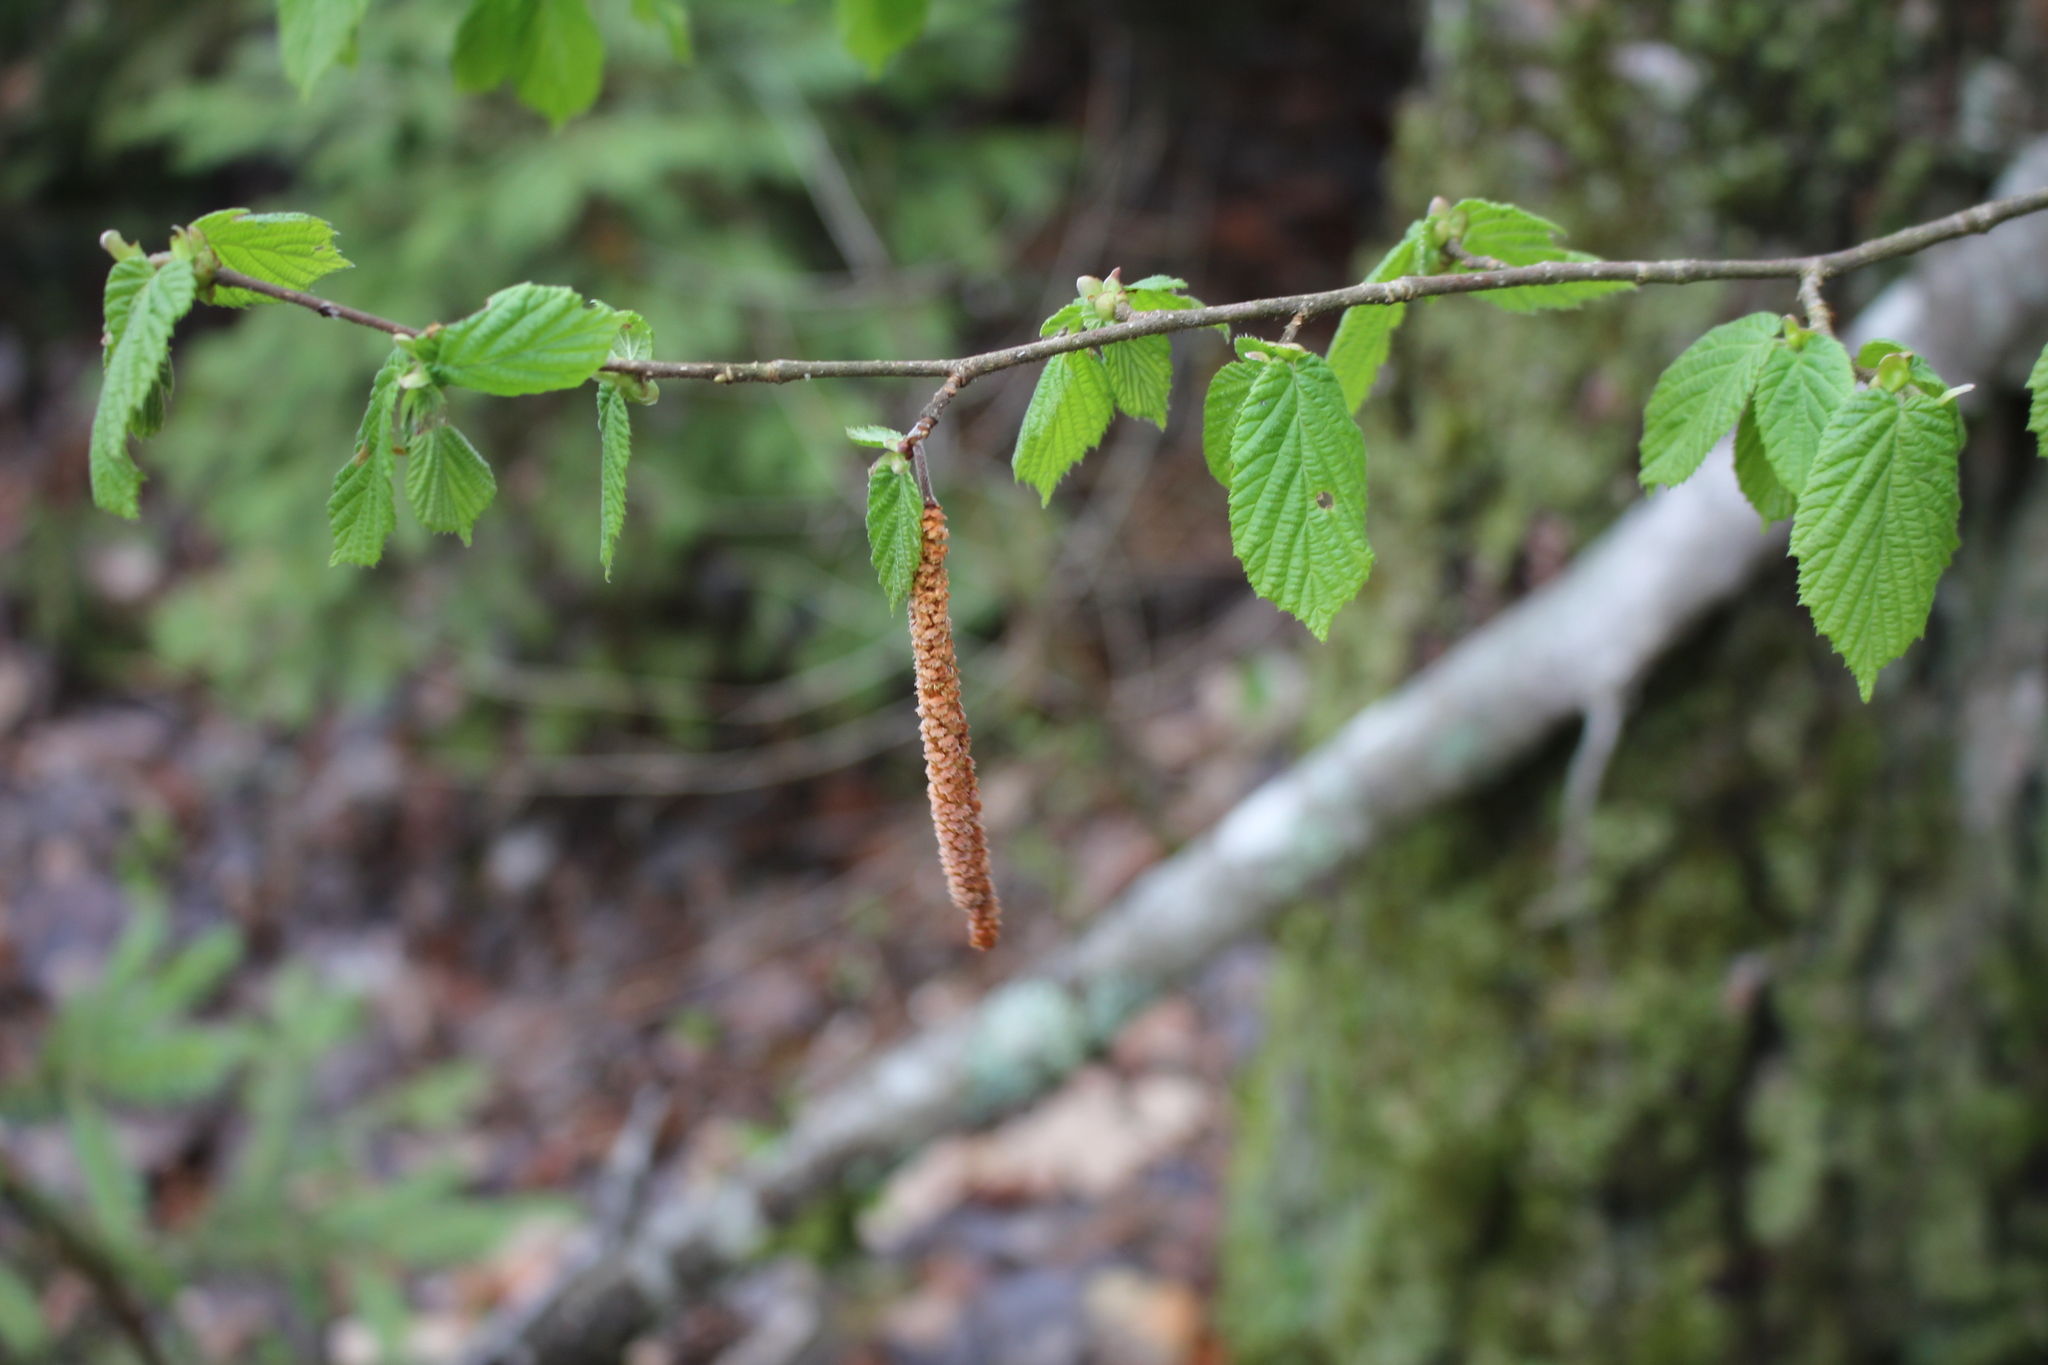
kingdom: Plantae
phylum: Tracheophyta
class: Magnoliopsida
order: Fagales
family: Betulaceae
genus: Corylus
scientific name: Corylus avellana
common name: European hazel
